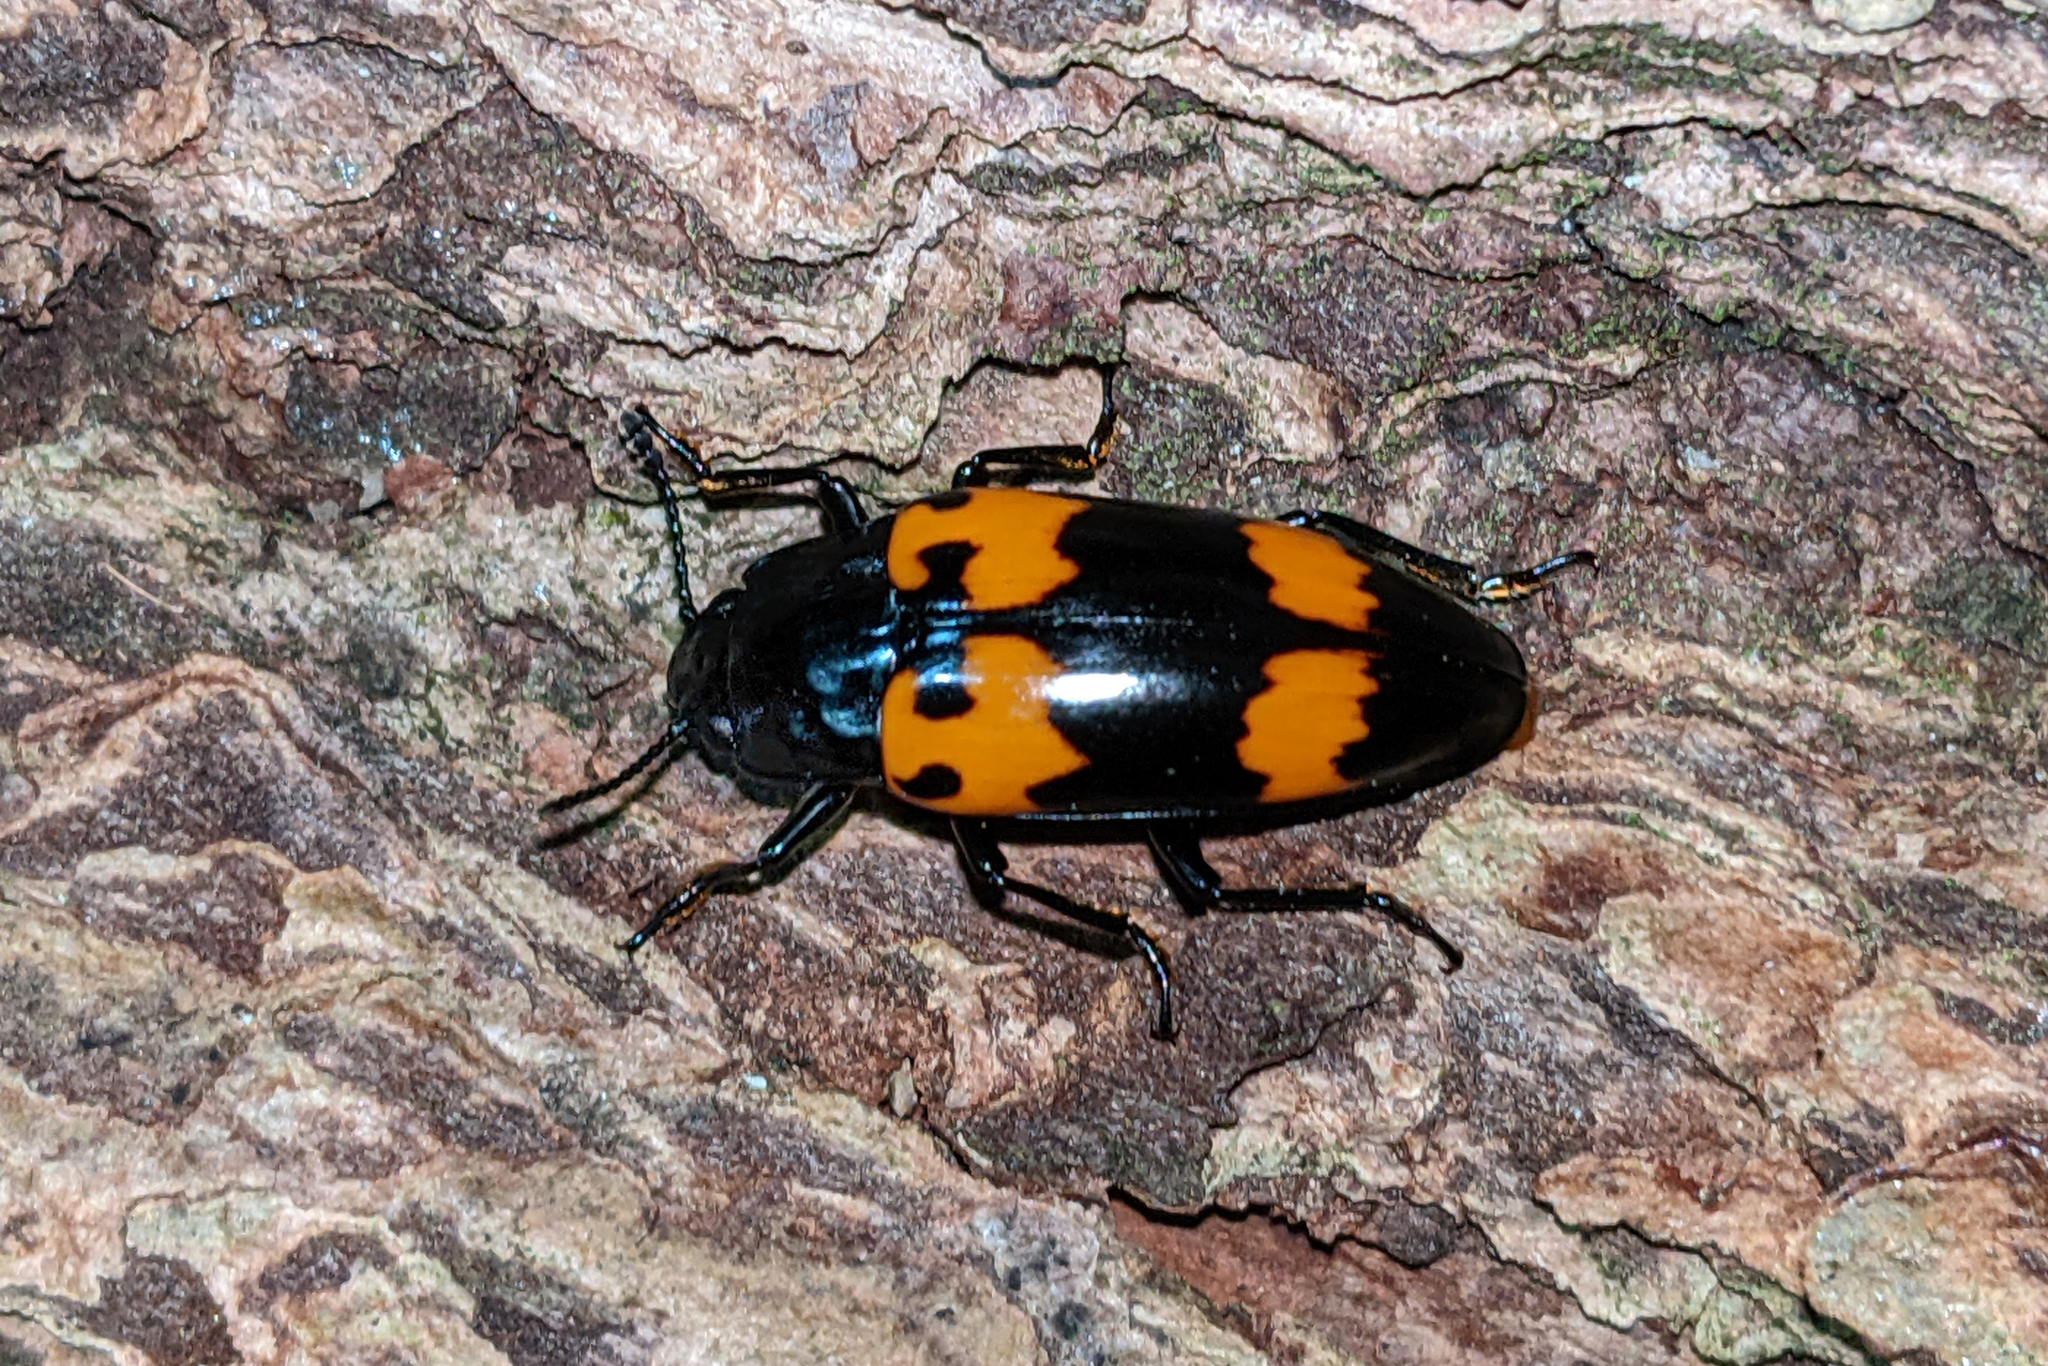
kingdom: Animalia
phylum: Arthropoda
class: Insecta
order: Coleoptera
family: Erotylidae
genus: Megalodacne
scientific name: Megalodacne heros
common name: Pleasing fungus beetle
